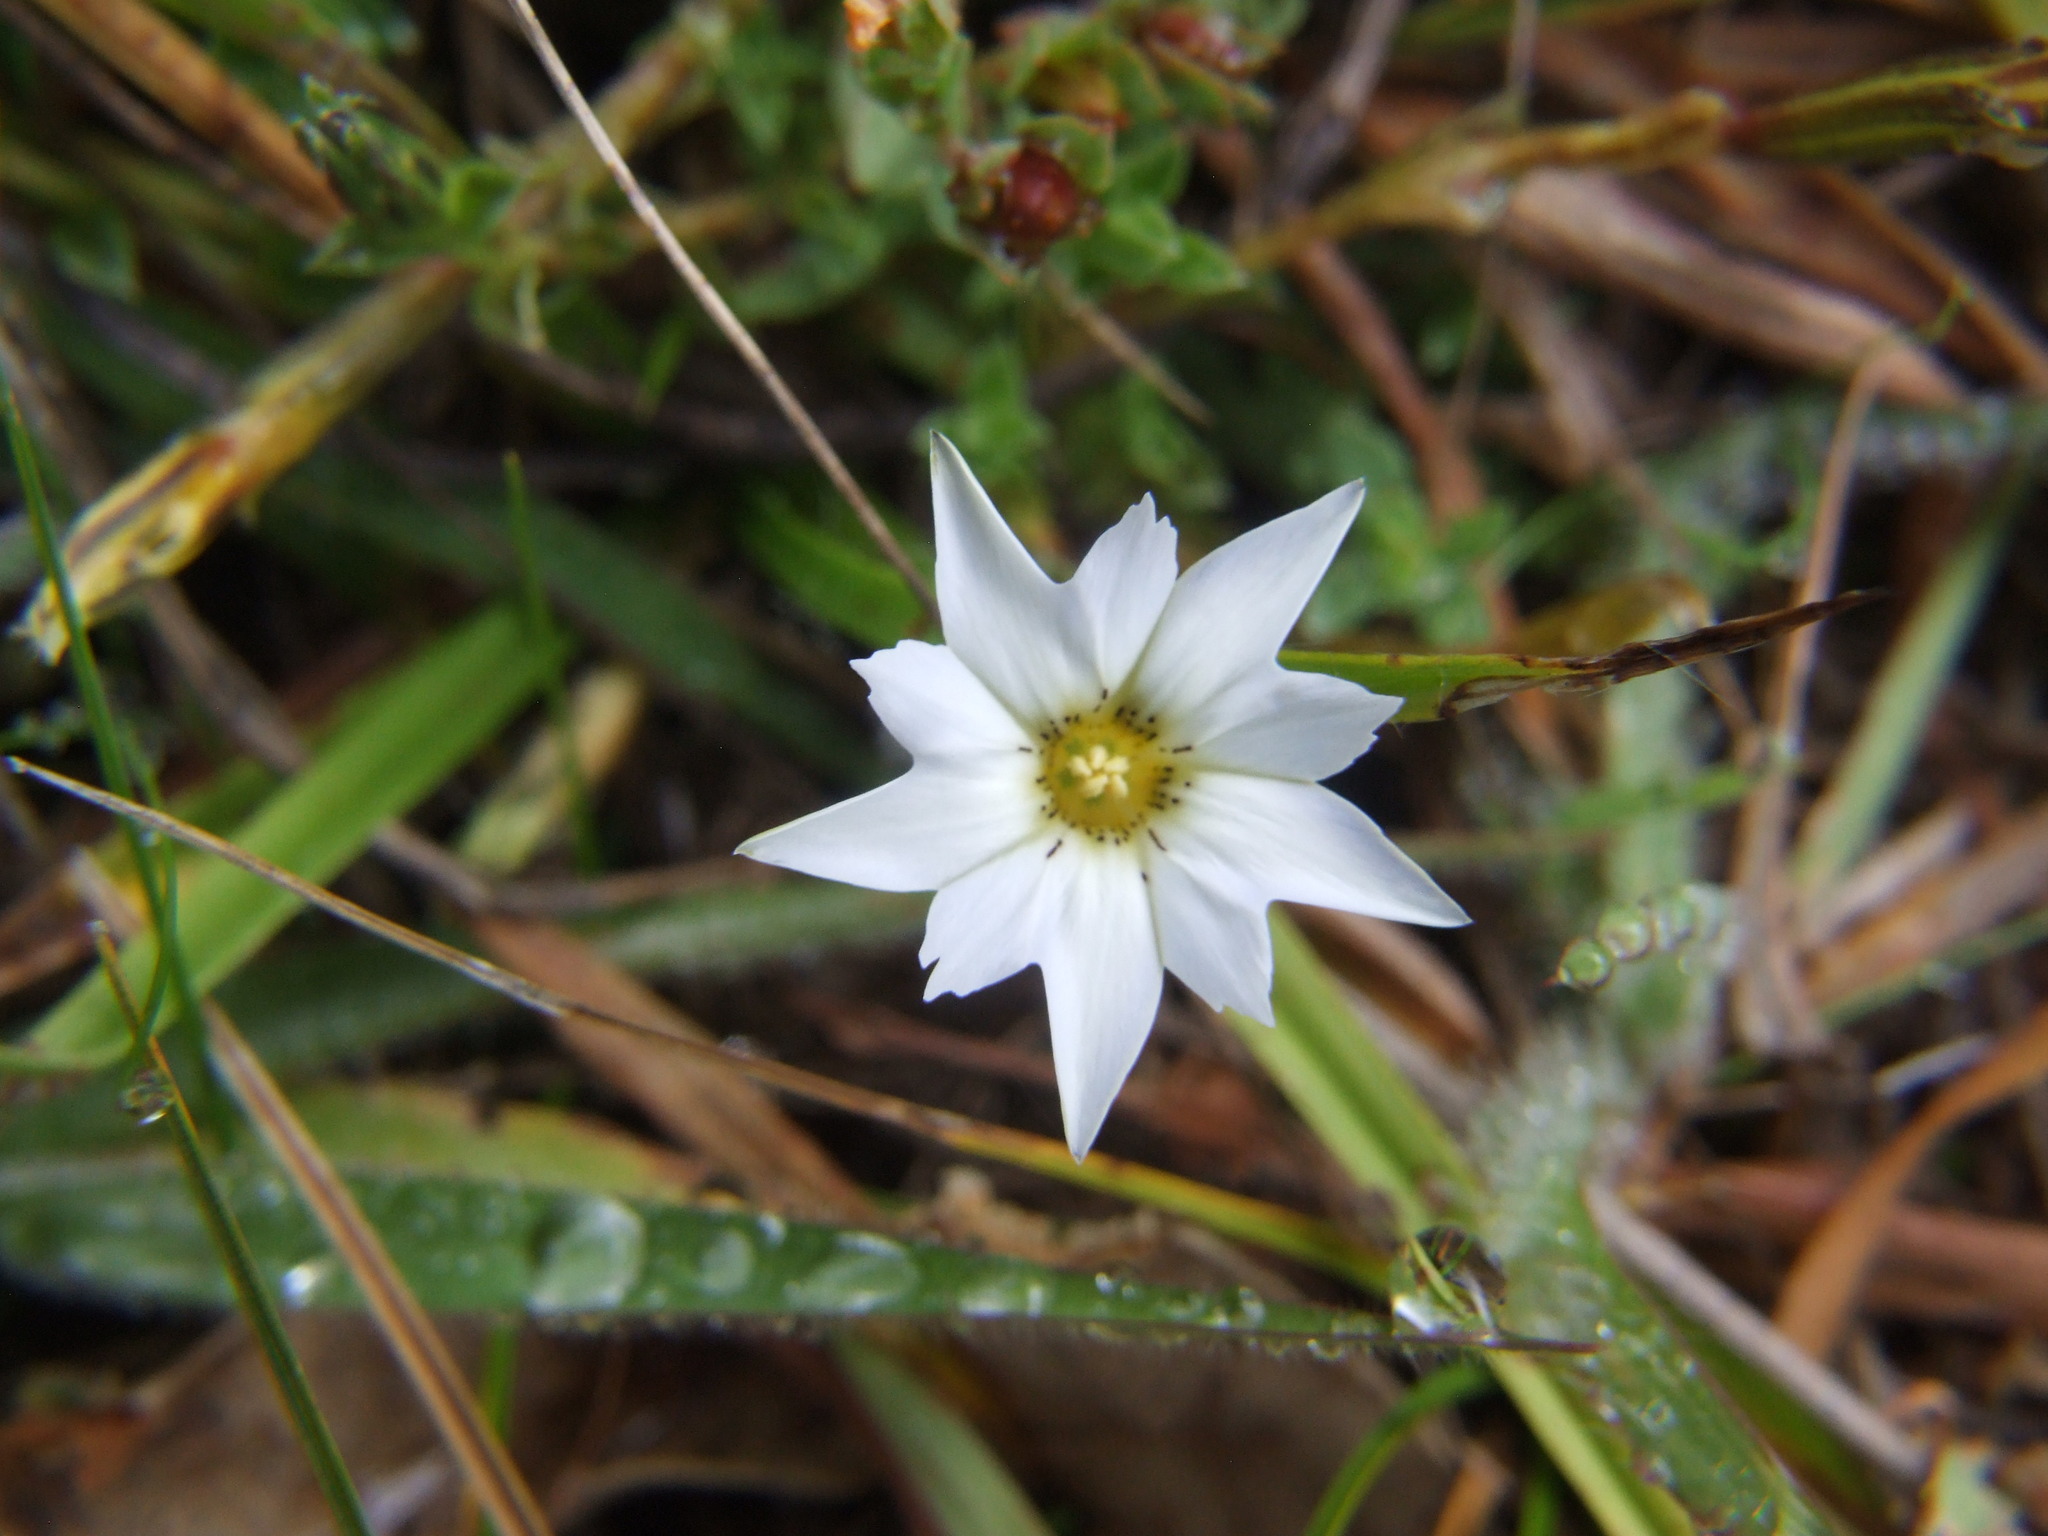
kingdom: Plantae
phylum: Tracheophyta
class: Magnoliopsida
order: Gentianales
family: Gentianaceae
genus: Gentiana
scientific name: Gentiana sedifolia
